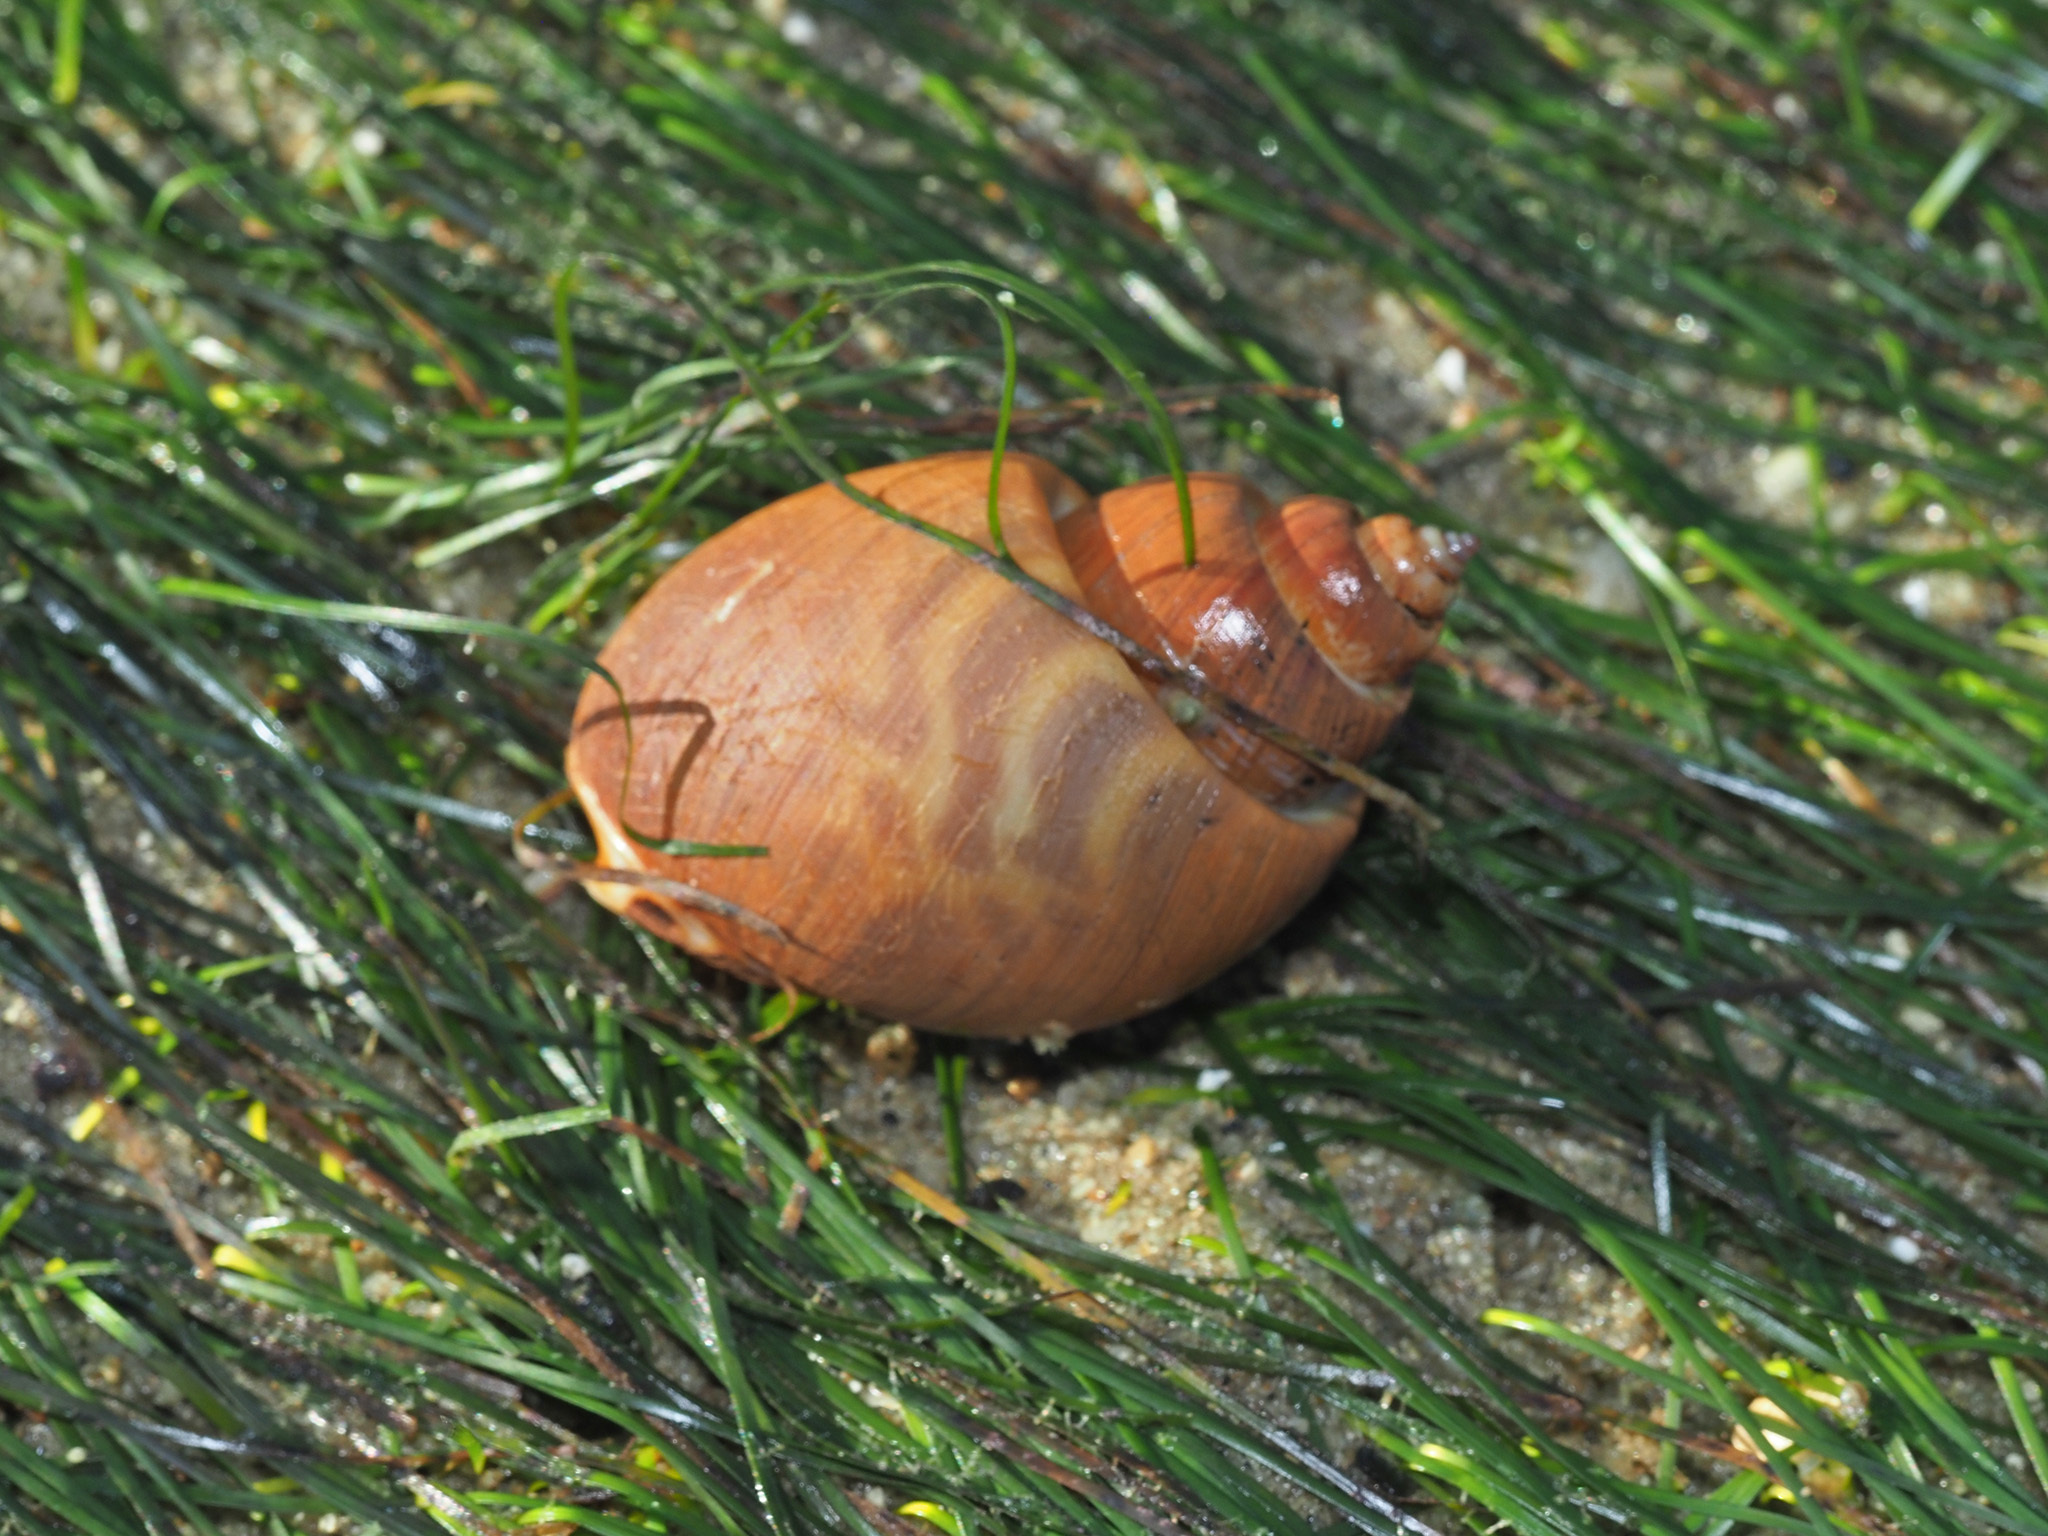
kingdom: Animalia
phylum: Mollusca
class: Gastropoda
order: Neogastropoda
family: Babyloniidae
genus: Babylonia
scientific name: Babylonia spirata
